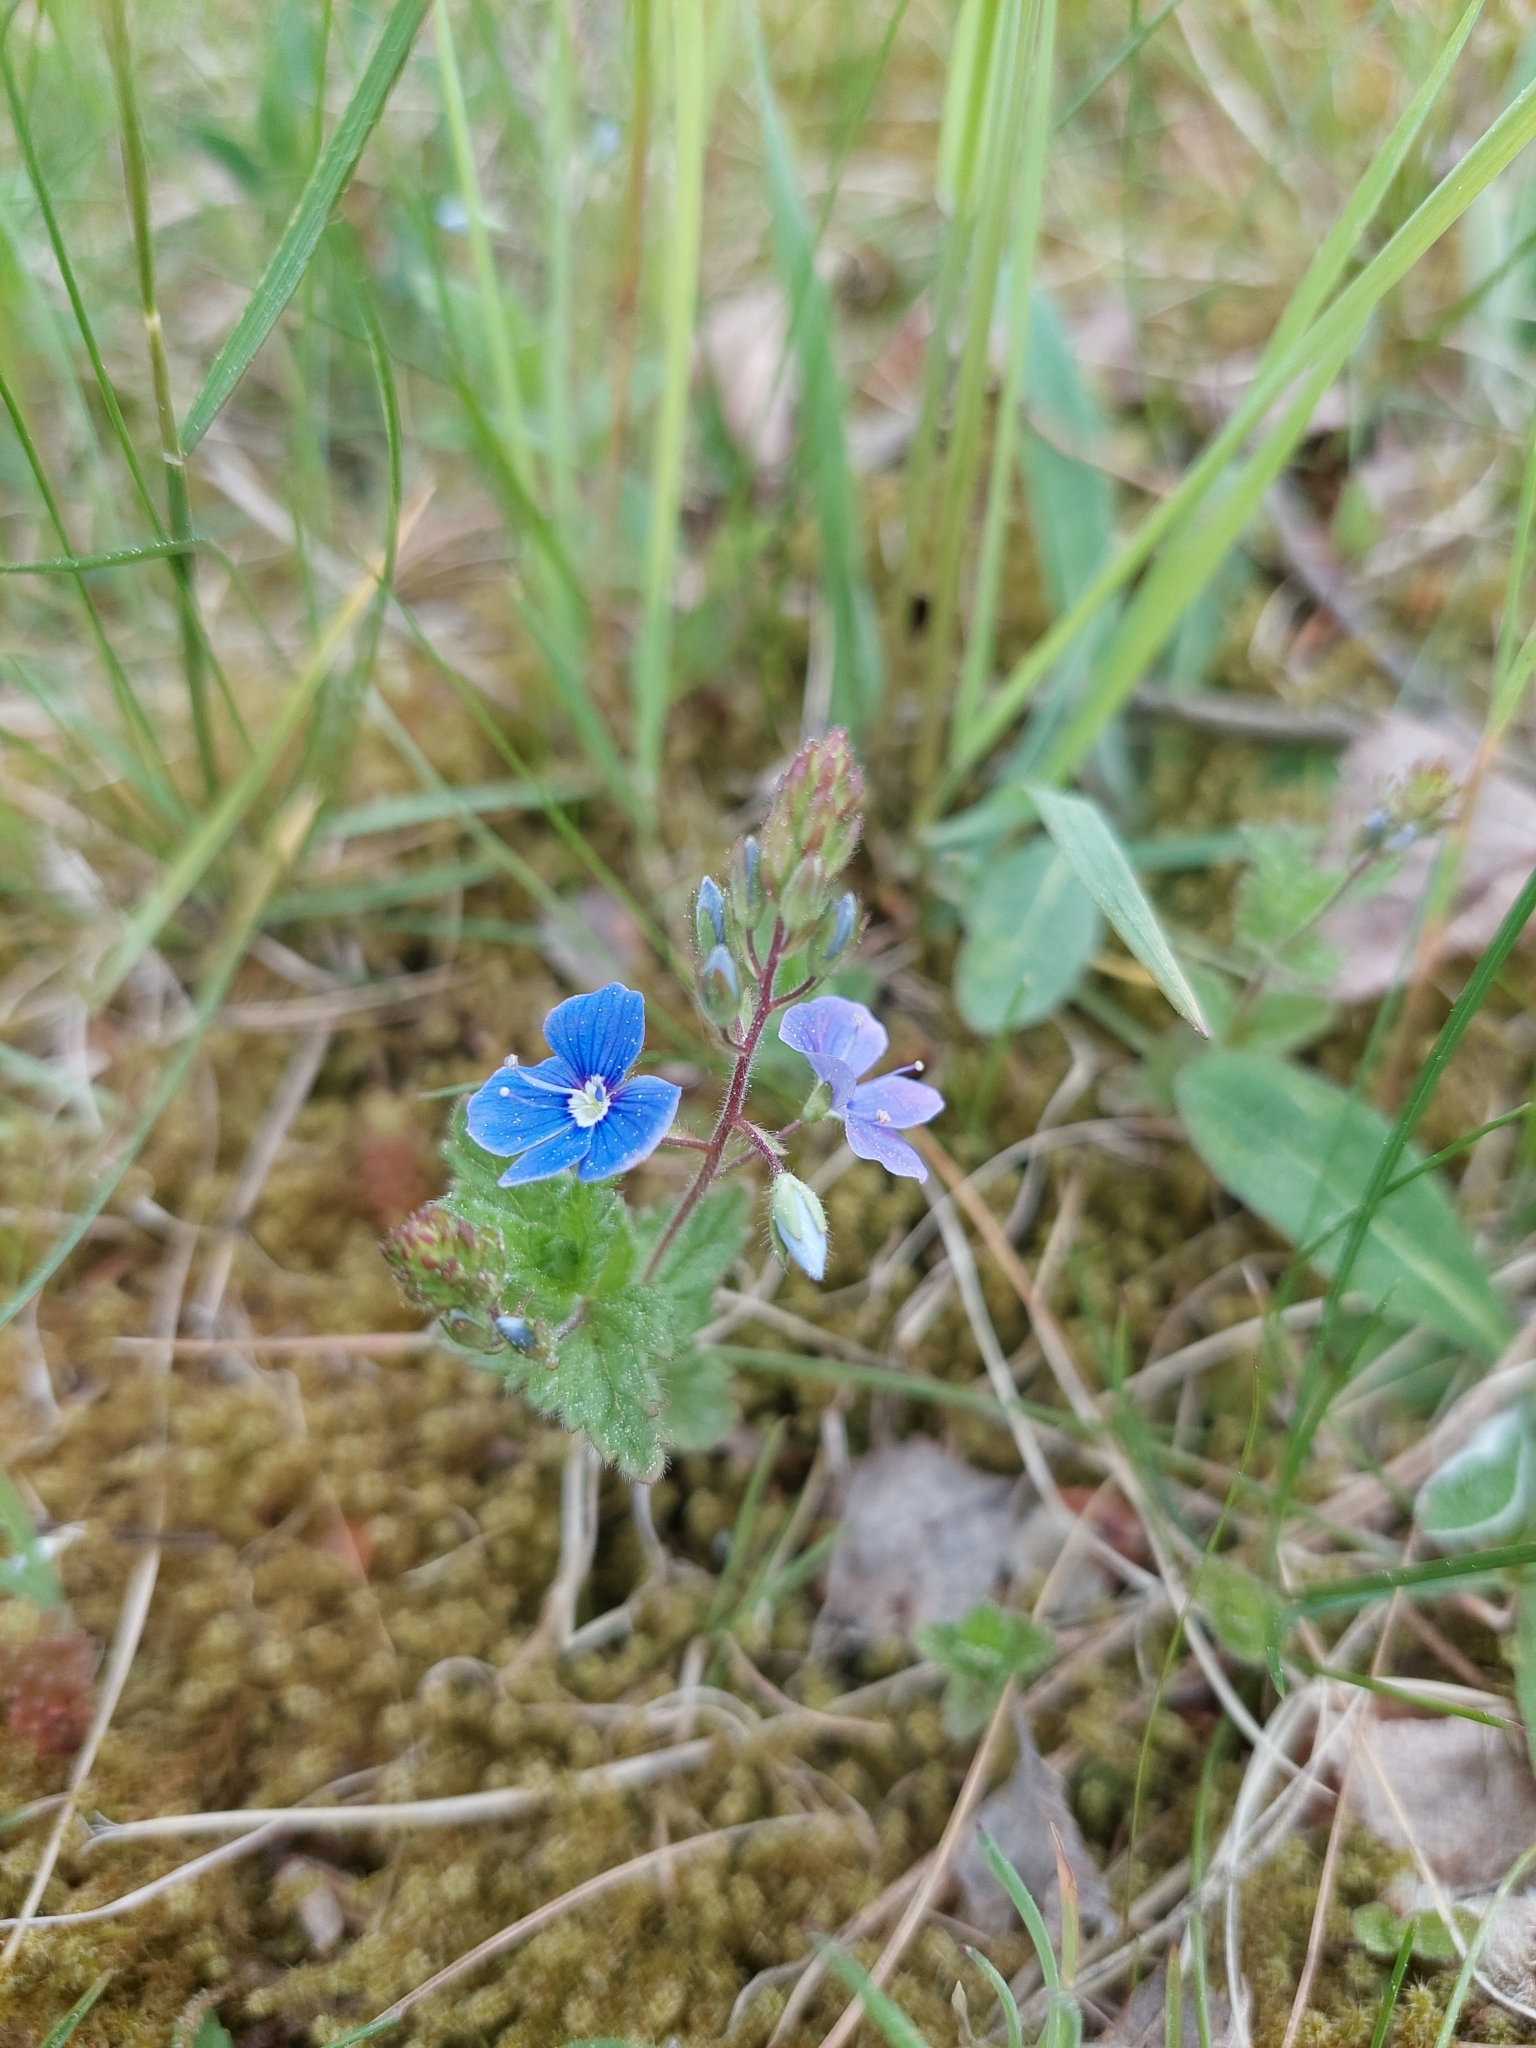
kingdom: Plantae
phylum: Tracheophyta
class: Magnoliopsida
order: Lamiales
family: Plantaginaceae
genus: Veronica
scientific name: Veronica chamaedrys
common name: Germander speedwell
